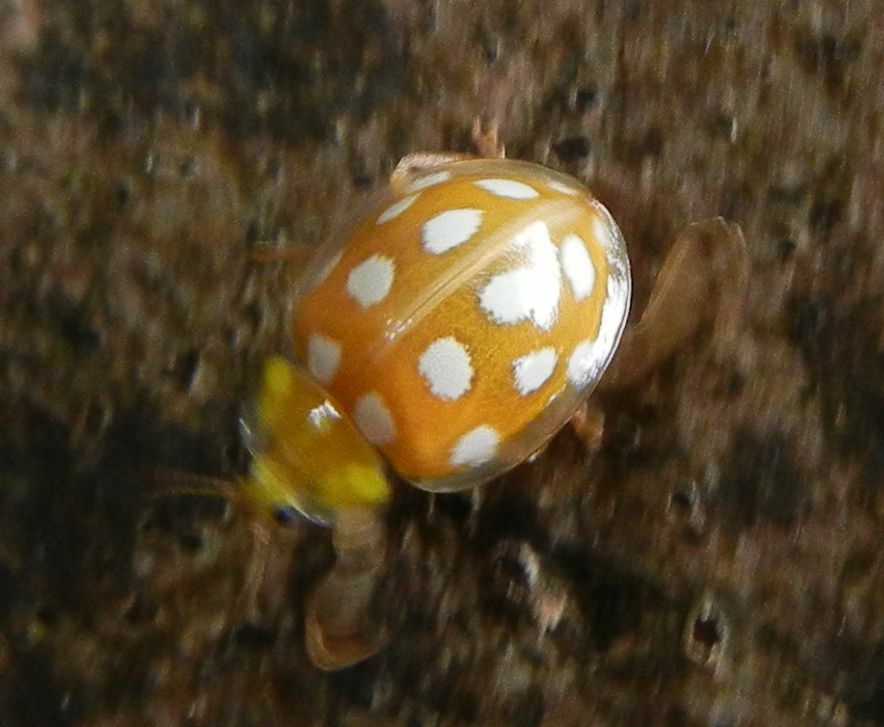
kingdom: Animalia
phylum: Arthropoda
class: Insecta
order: Coleoptera
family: Coccinellidae
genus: Halyzia
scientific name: Halyzia sedecimguttata
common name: Orange ladybird
